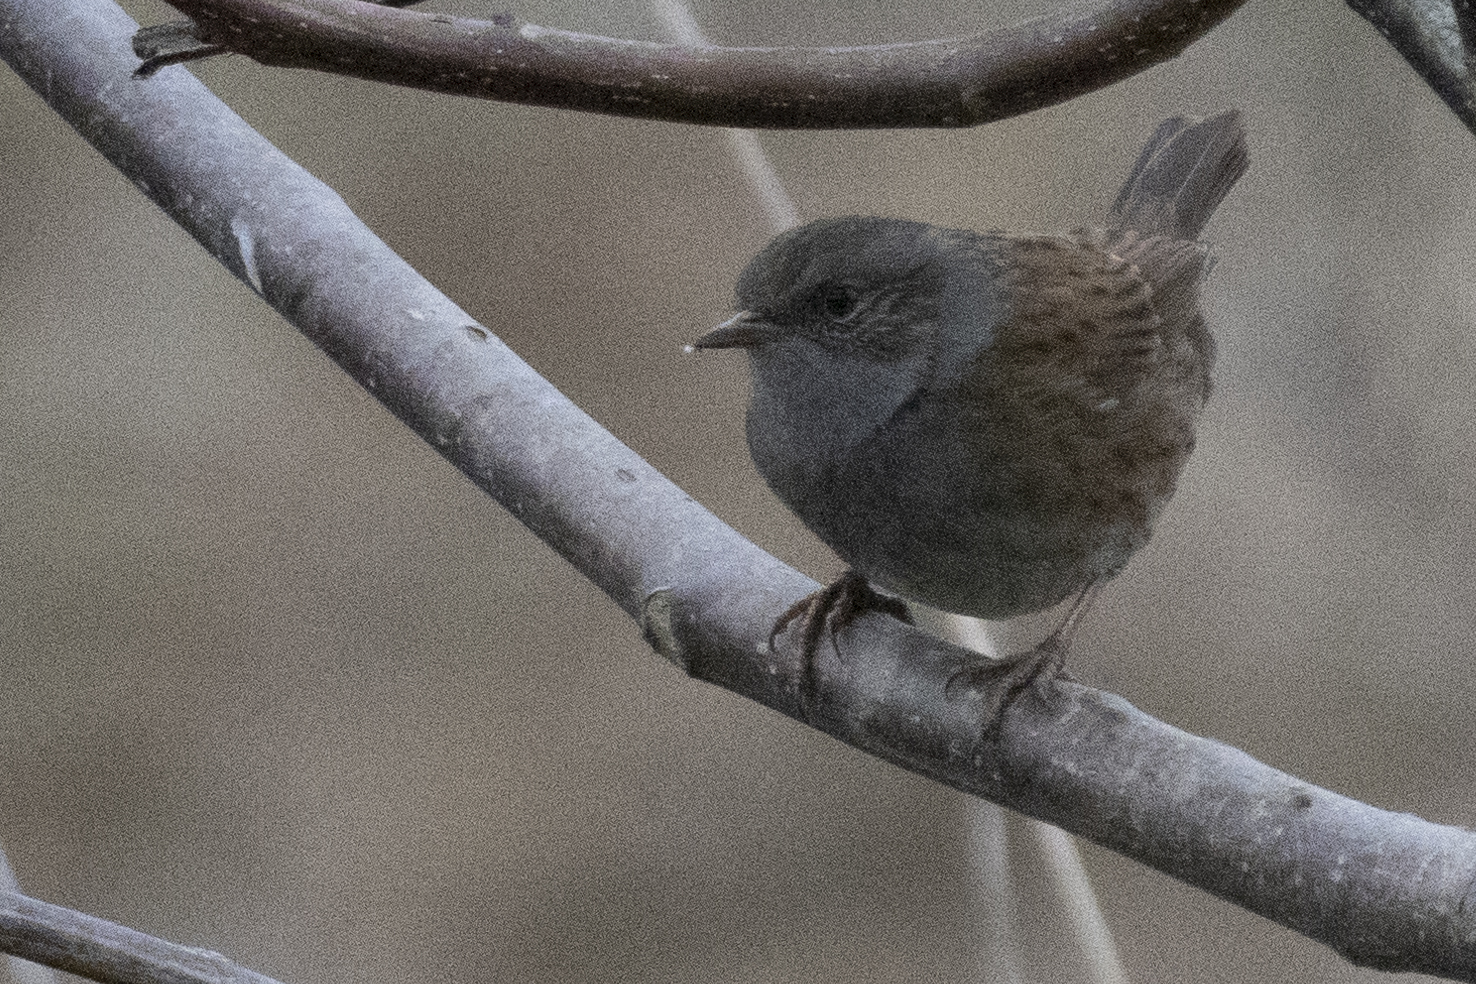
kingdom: Animalia
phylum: Chordata
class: Aves
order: Passeriformes
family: Prunellidae
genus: Prunella
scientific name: Prunella modularis
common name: Dunnock
